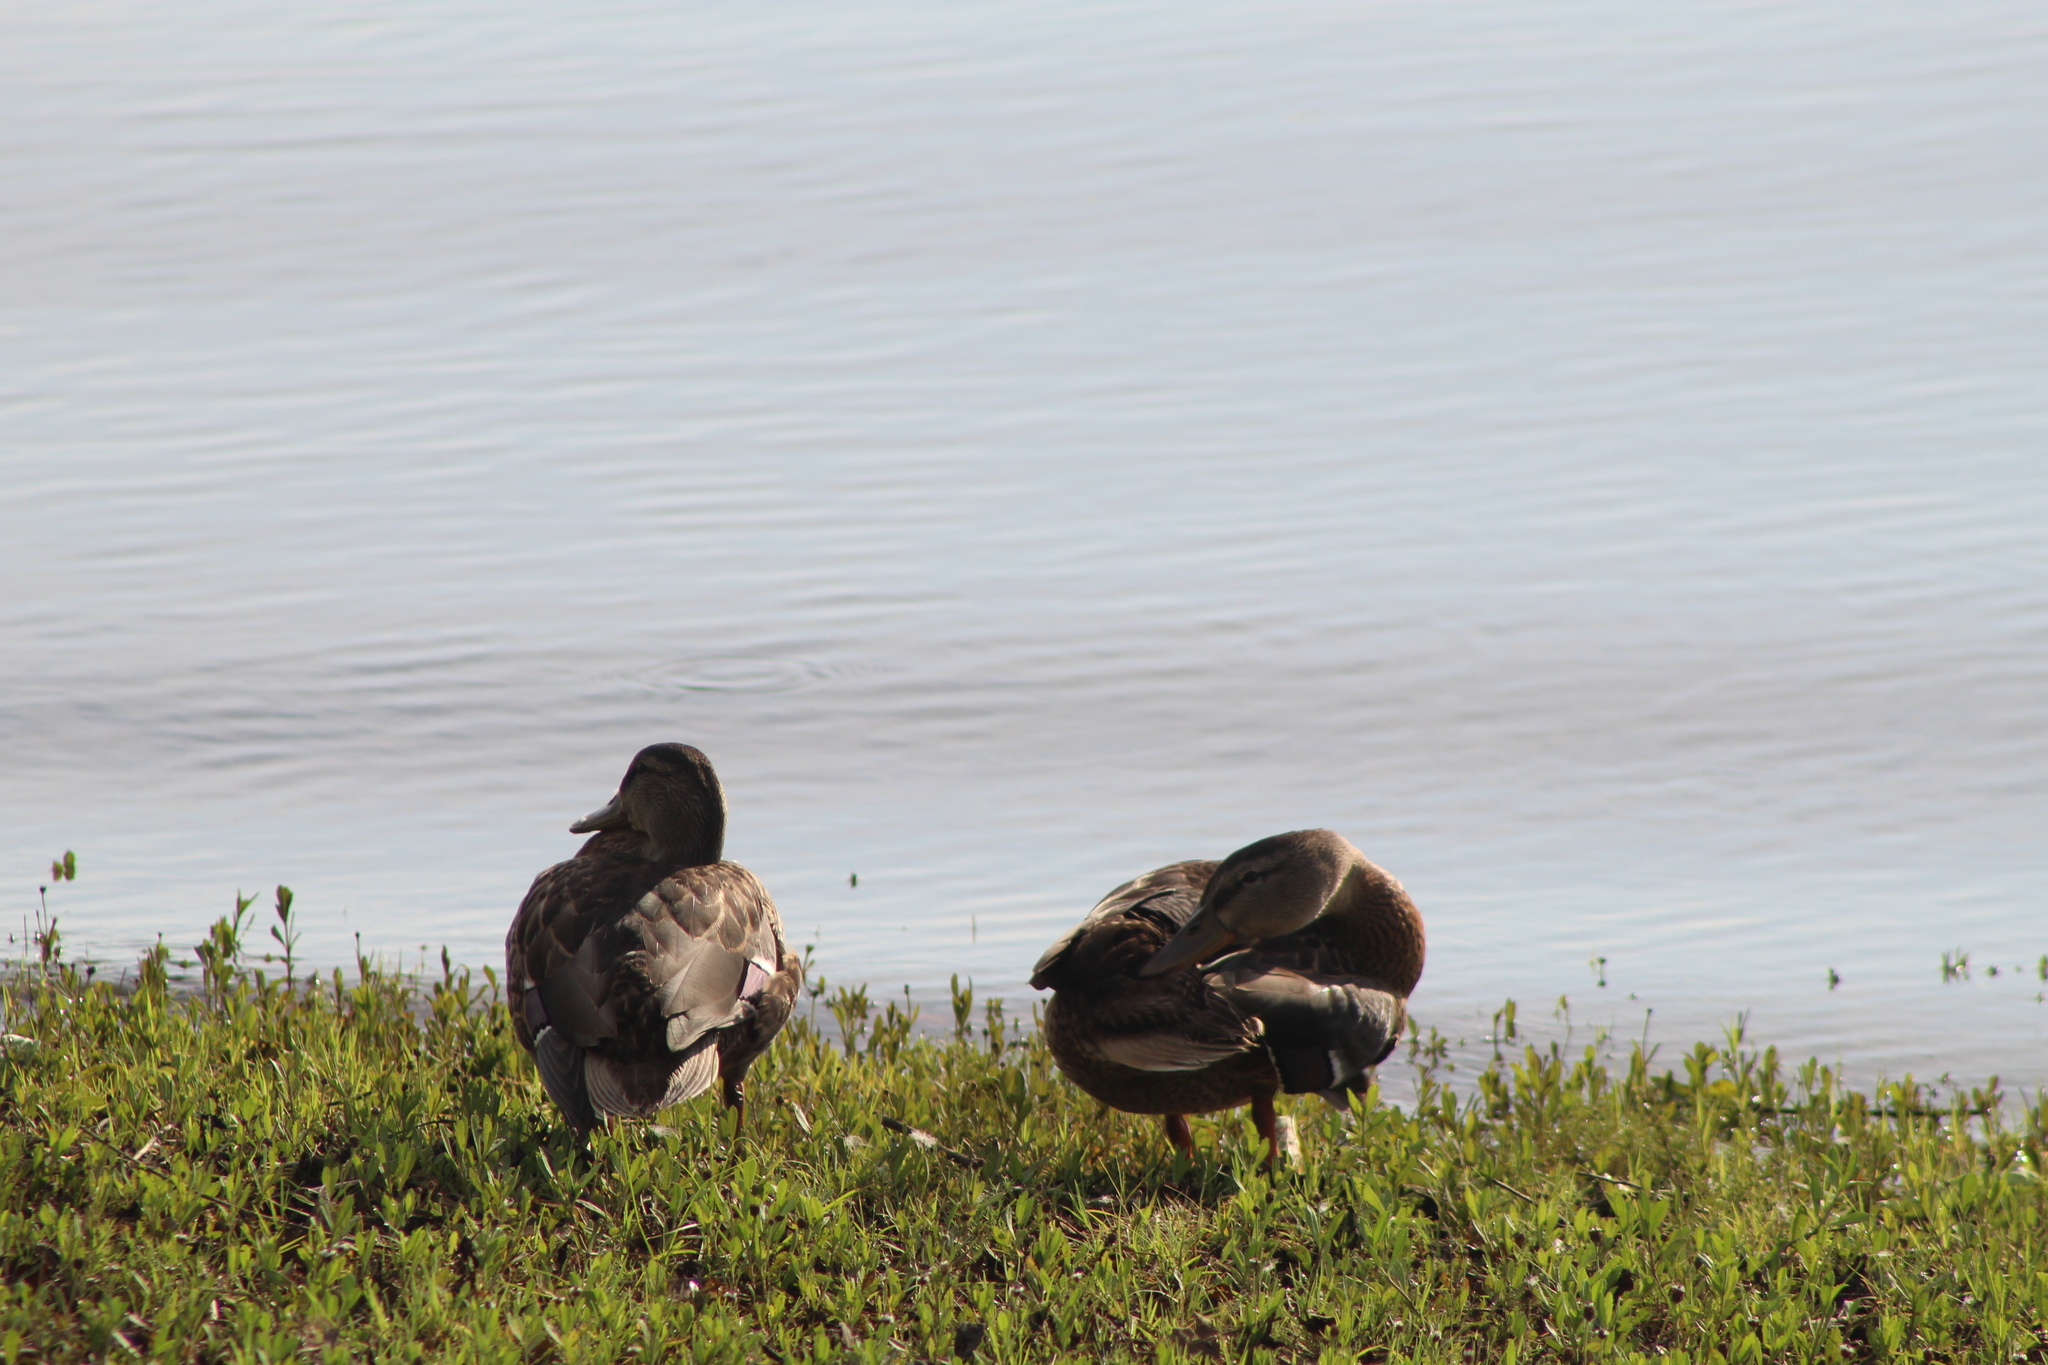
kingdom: Animalia
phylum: Chordata
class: Aves
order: Anseriformes
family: Anatidae
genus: Anas
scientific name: Anas platyrhynchos
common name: Mallard
